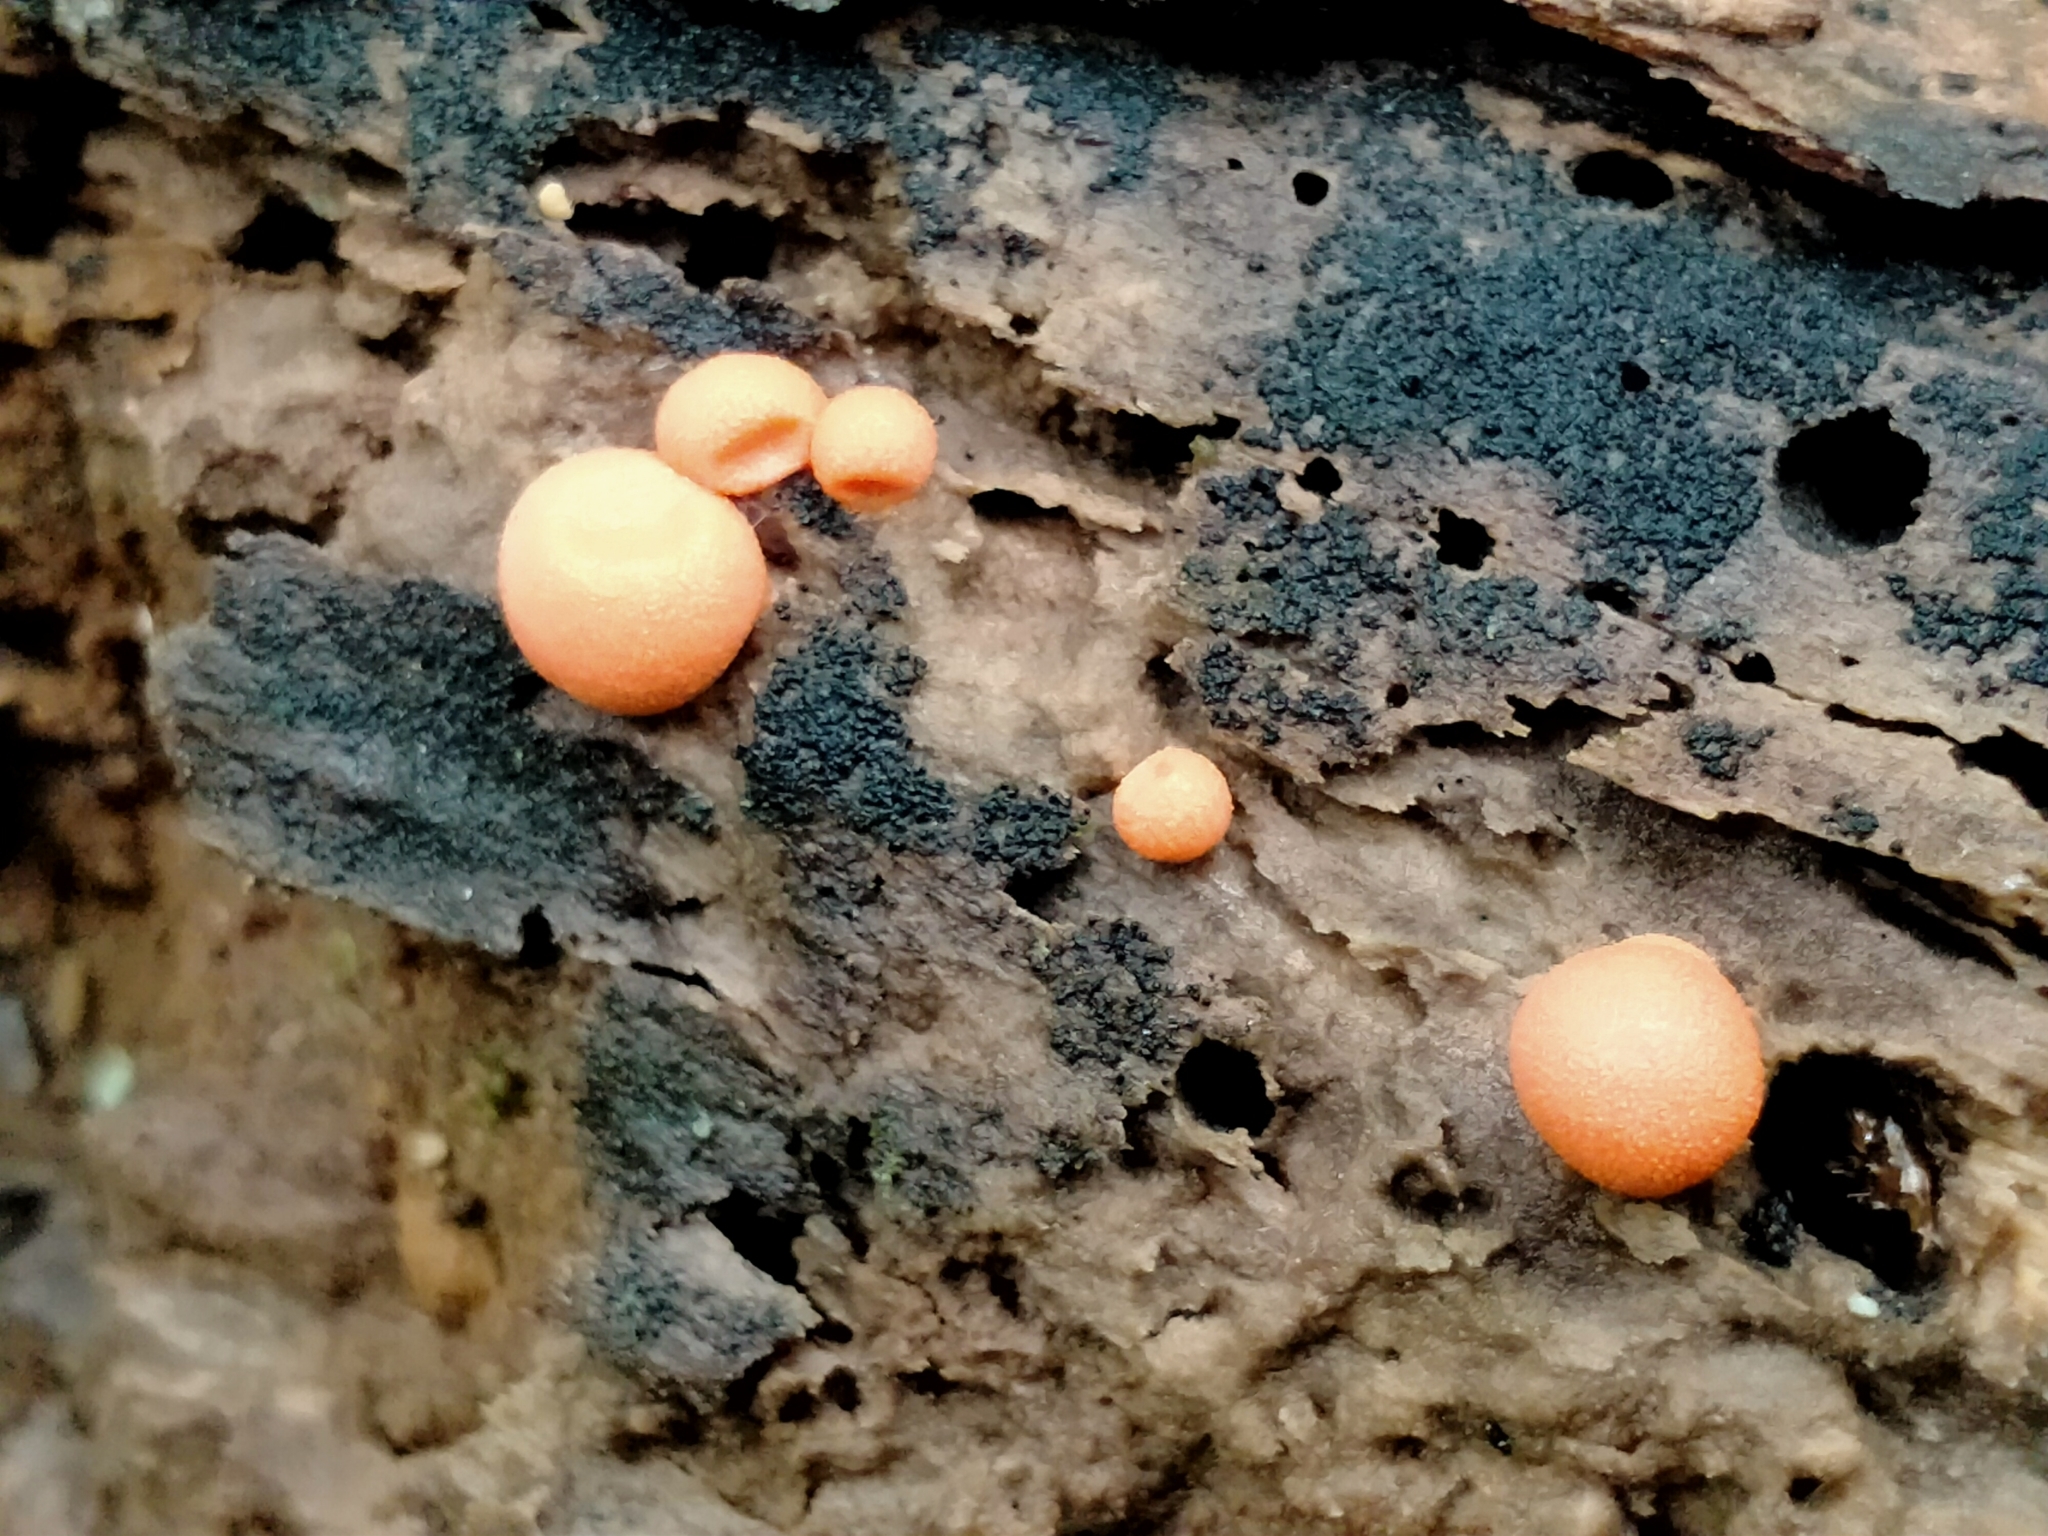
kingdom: Protozoa
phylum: Mycetozoa
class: Myxomycetes
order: Cribrariales
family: Tubiferaceae
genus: Lycogala
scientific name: Lycogala epidendrum
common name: Wolf's milk
